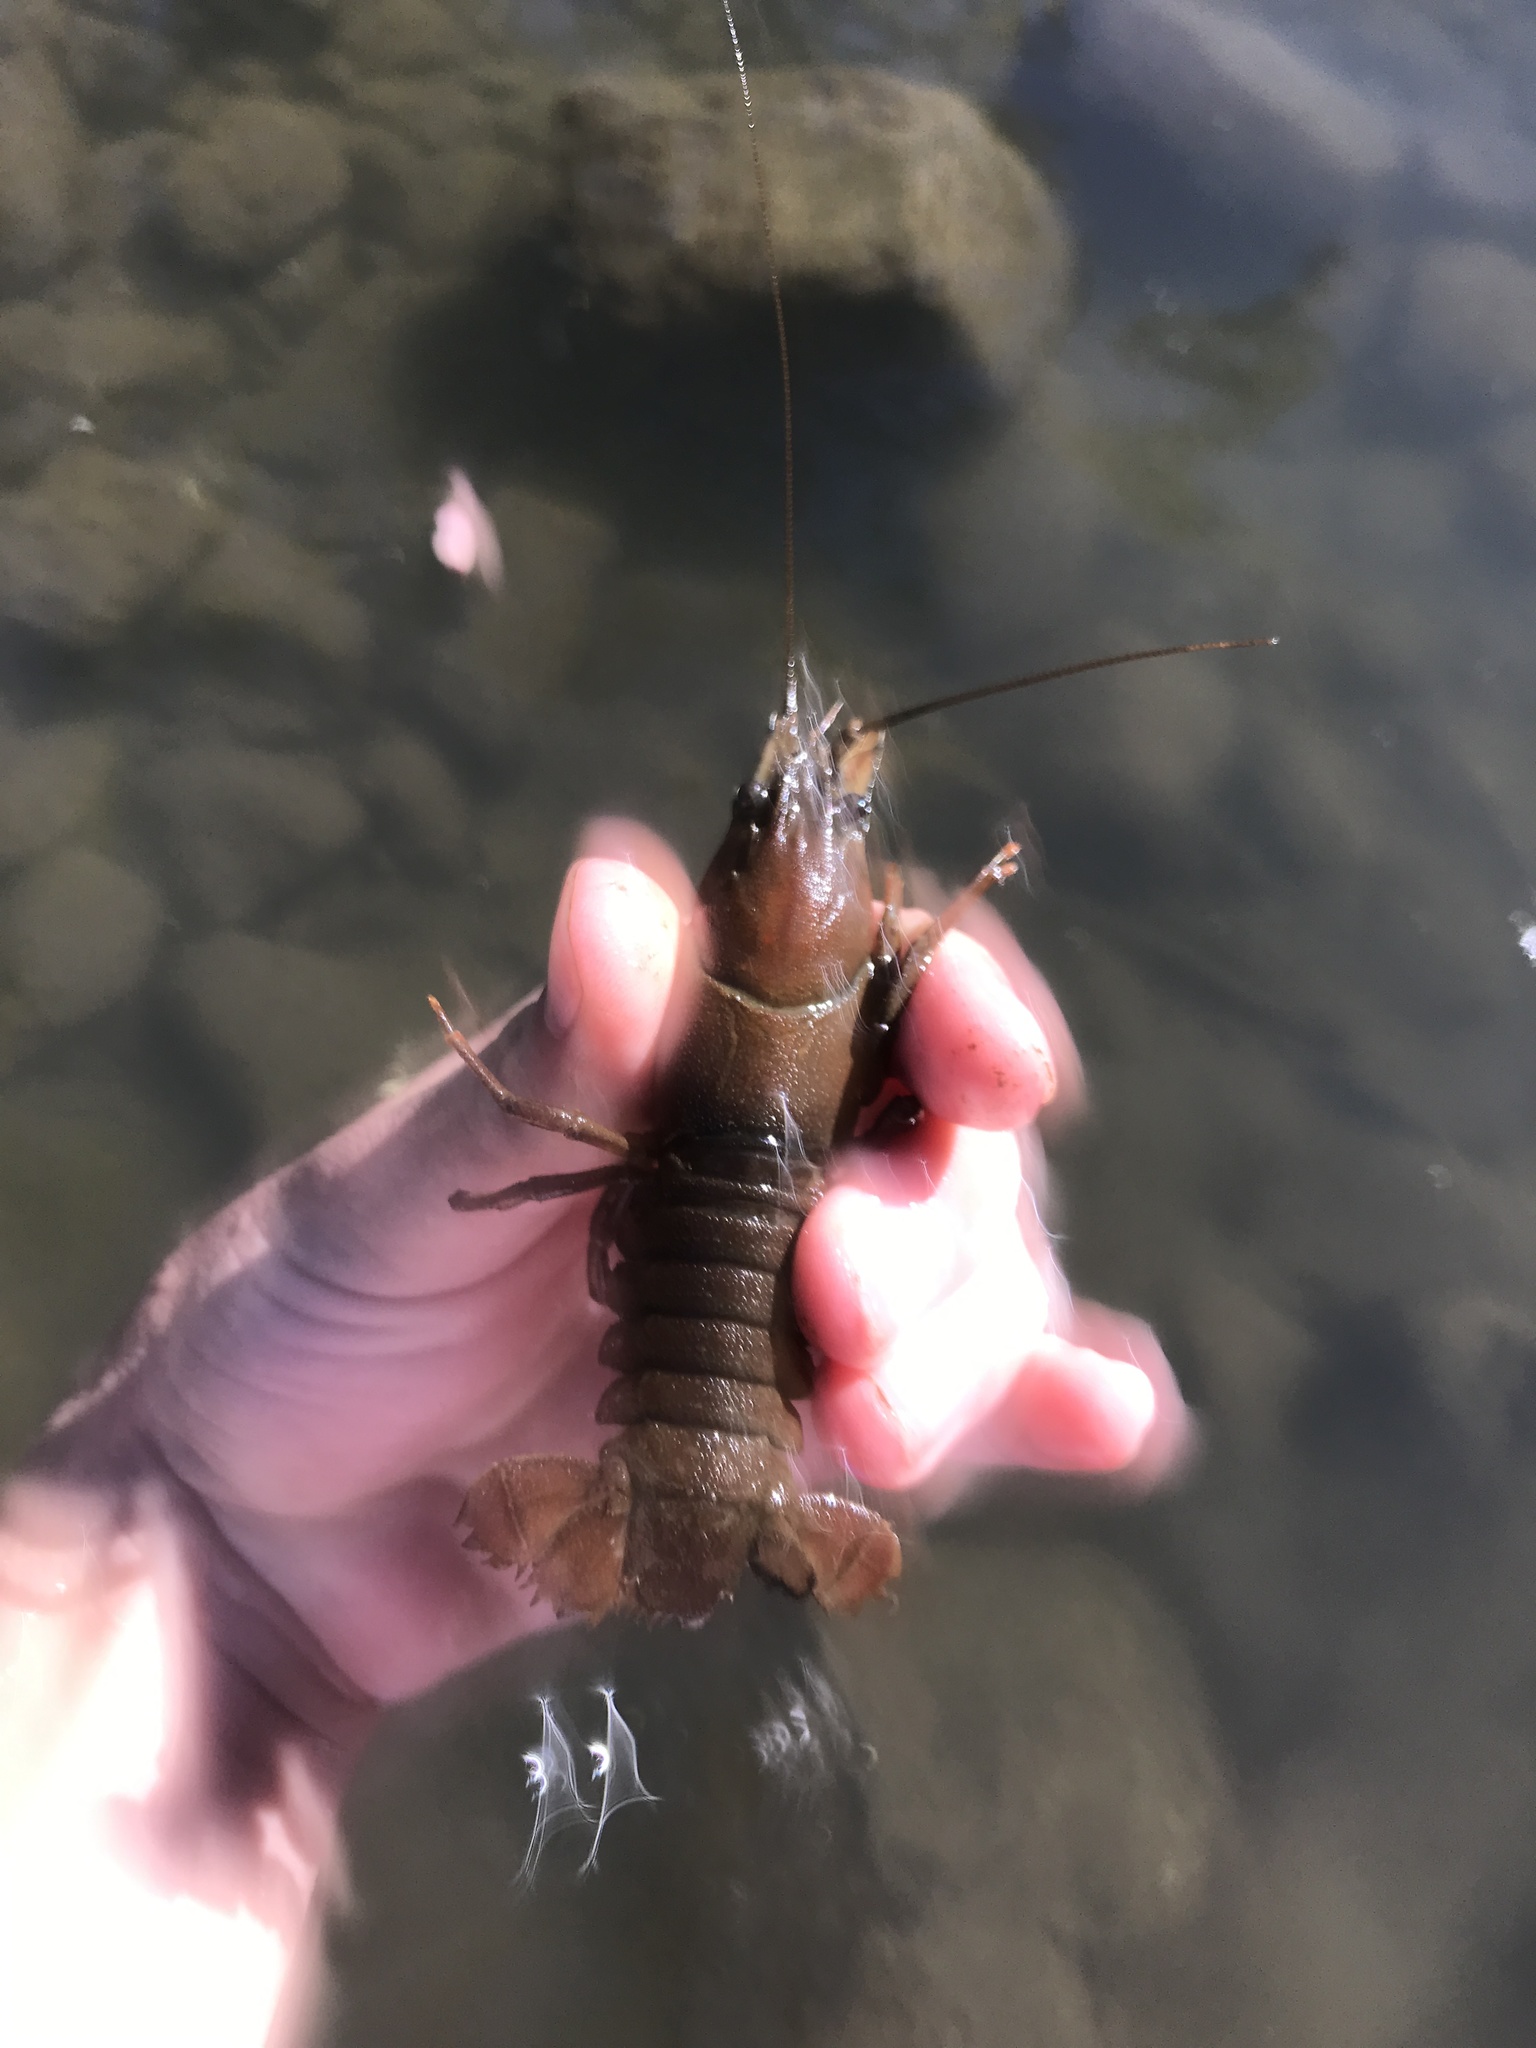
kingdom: Animalia
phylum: Arthropoda
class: Malacostraca
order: Decapoda
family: Astacidae
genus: Pacifastacus
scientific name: Pacifastacus leniusculus
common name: Signal crayfish
